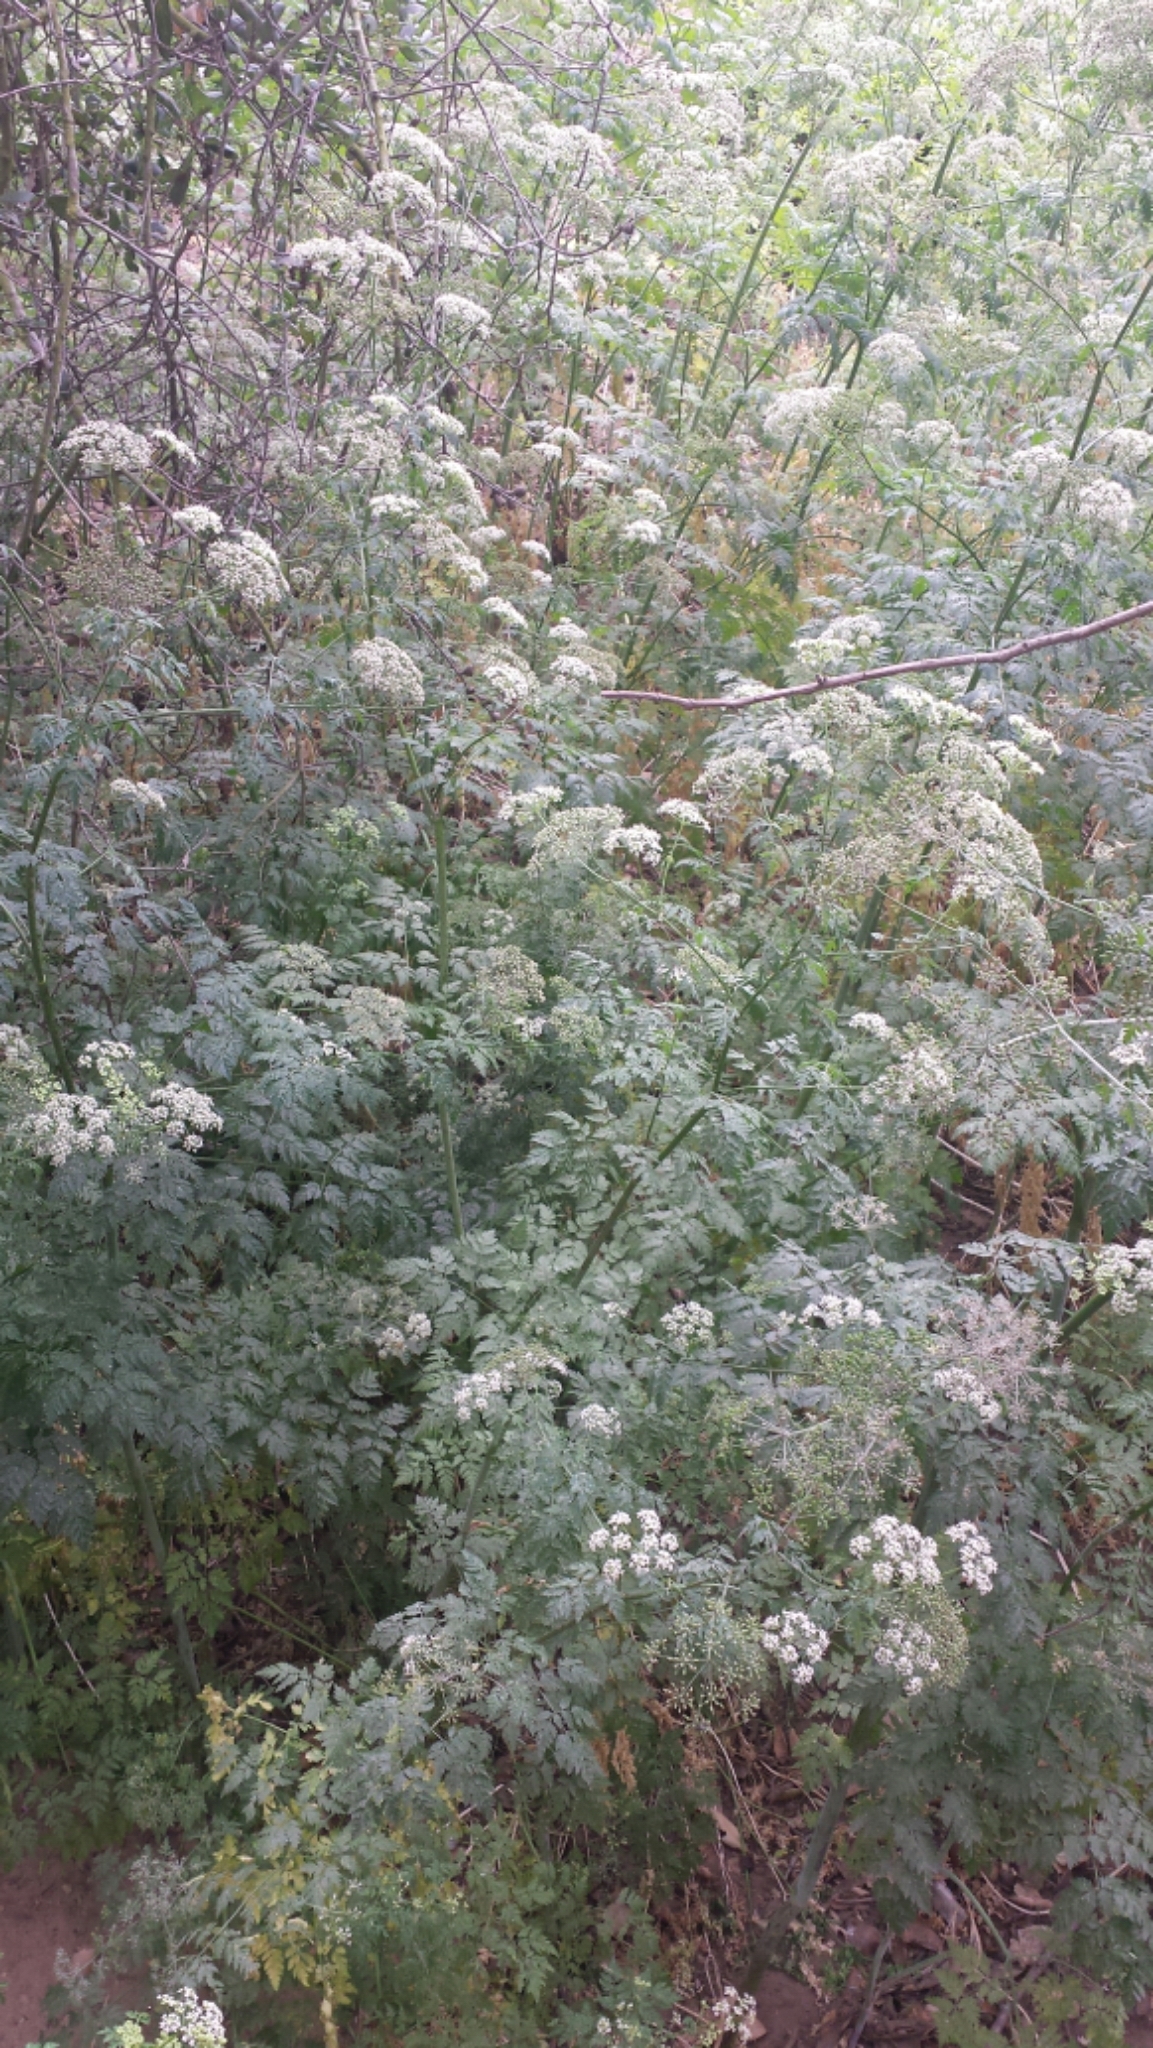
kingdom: Plantae
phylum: Tracheophyta
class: Magnoliopsida
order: Apiales
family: Apiaceae
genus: Conium
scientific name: Conium maculatum
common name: Hemlock
